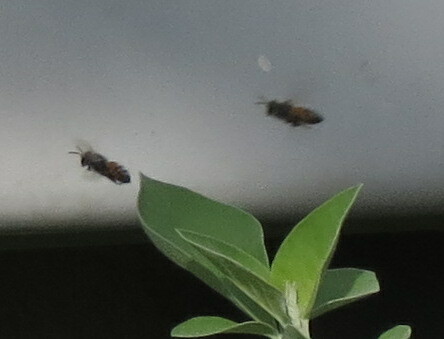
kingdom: Animalia
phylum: Arthropoda
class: Insecta
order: Hymenoptera
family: Apidae
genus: Apis
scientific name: Apis florea
